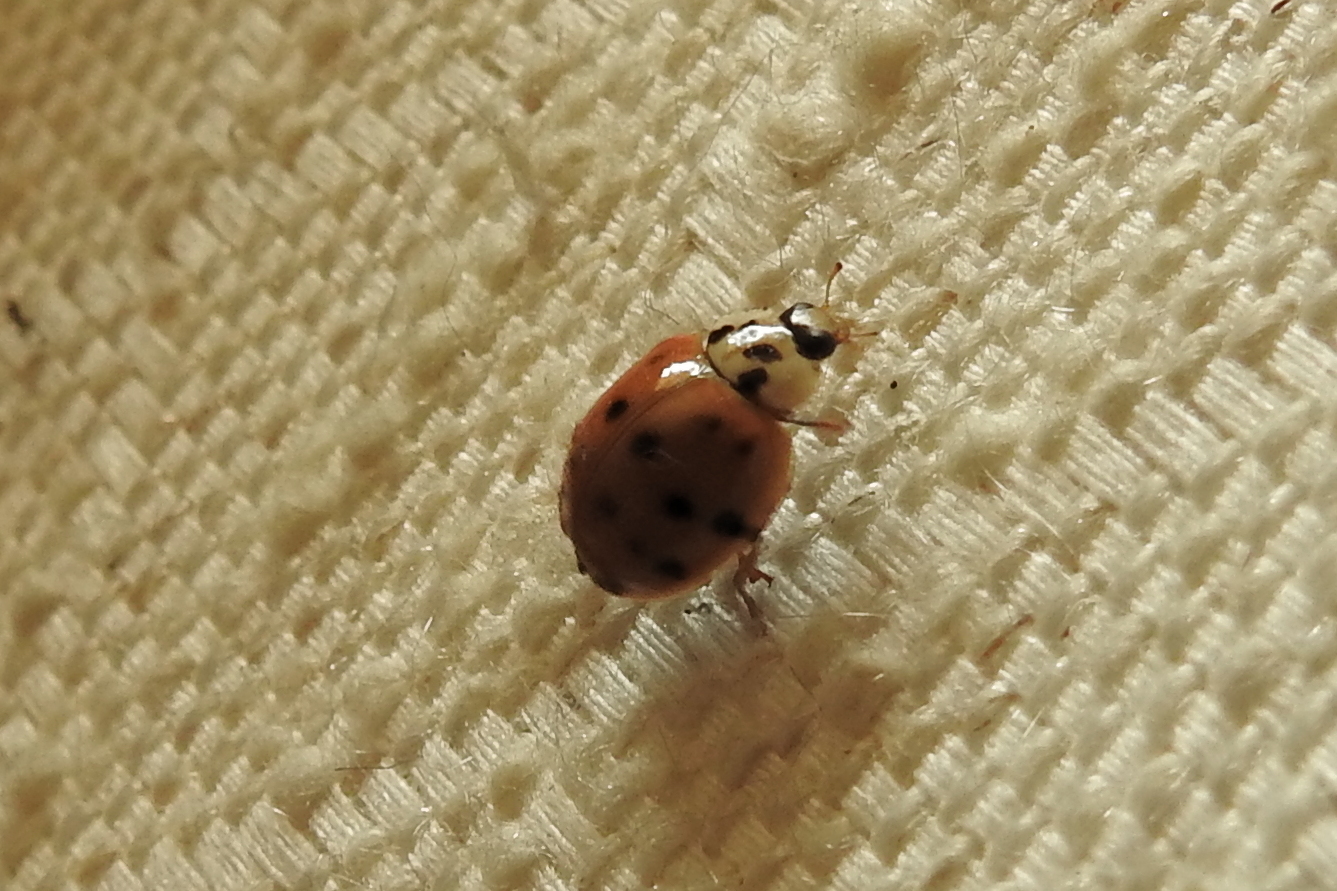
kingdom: Animalia
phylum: Arthropoda
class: Insecta
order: Coleoptera
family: Coccinellidae
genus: Harmonia
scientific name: Harmonia axyridis
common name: Harlequin ladybird
